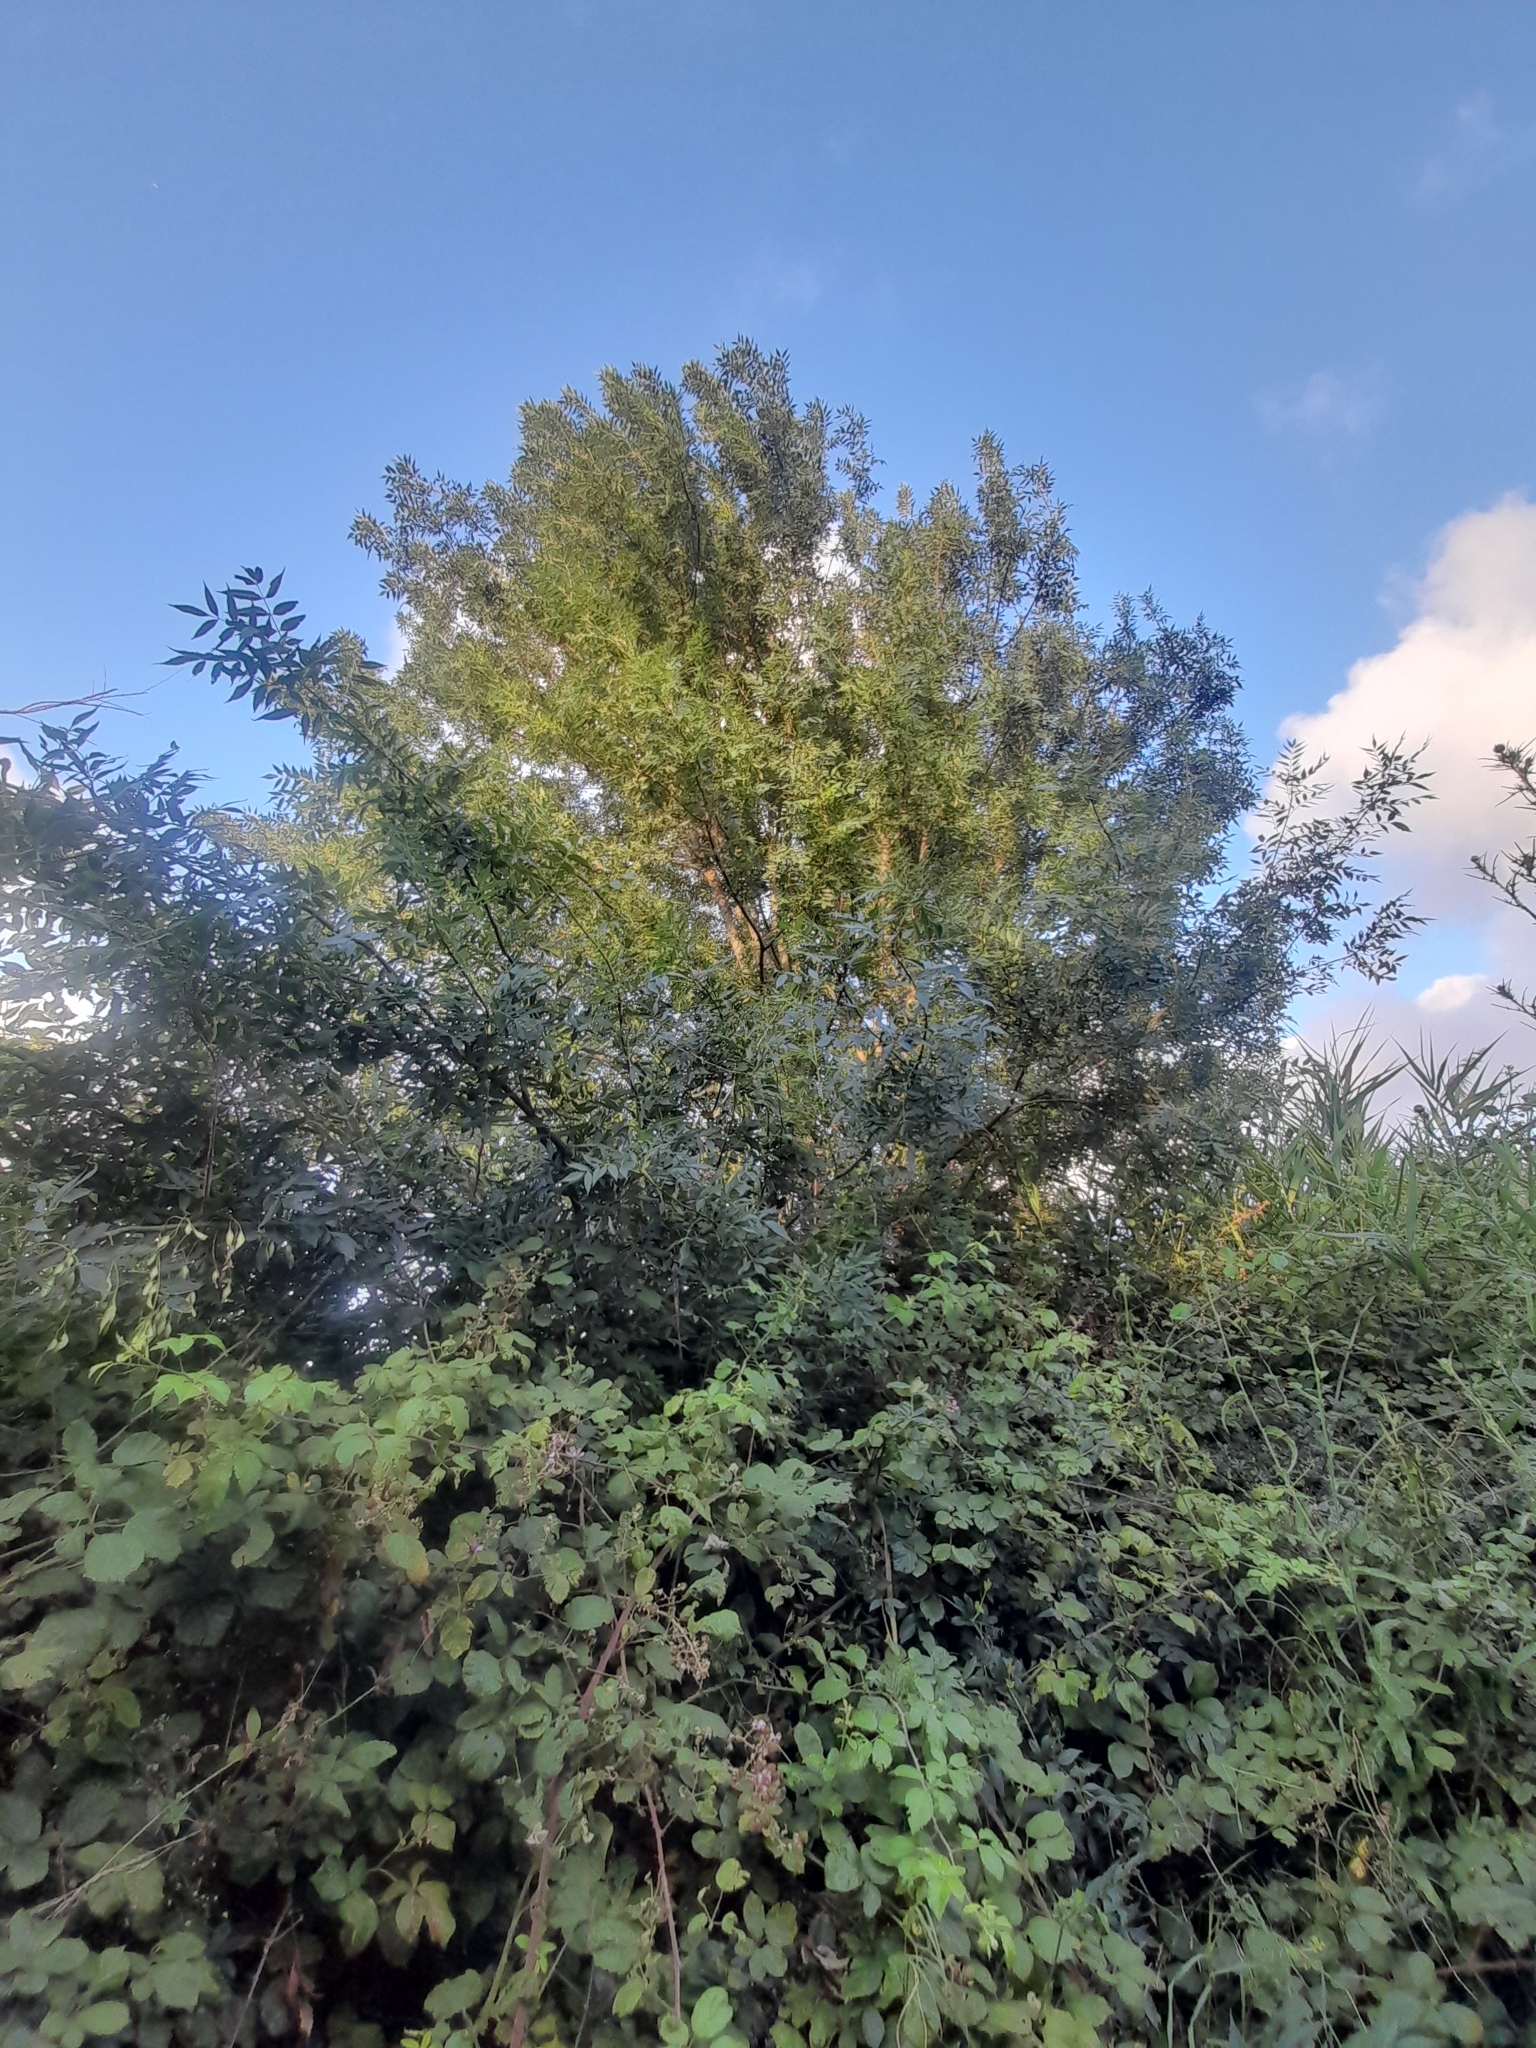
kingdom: Plantae
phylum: Tracheophyta
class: Magnoliopsida
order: Lamiales
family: Oleaceae
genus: Fraxinus
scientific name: Fraxinus angustifolia
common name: Narrow-leafed ash
